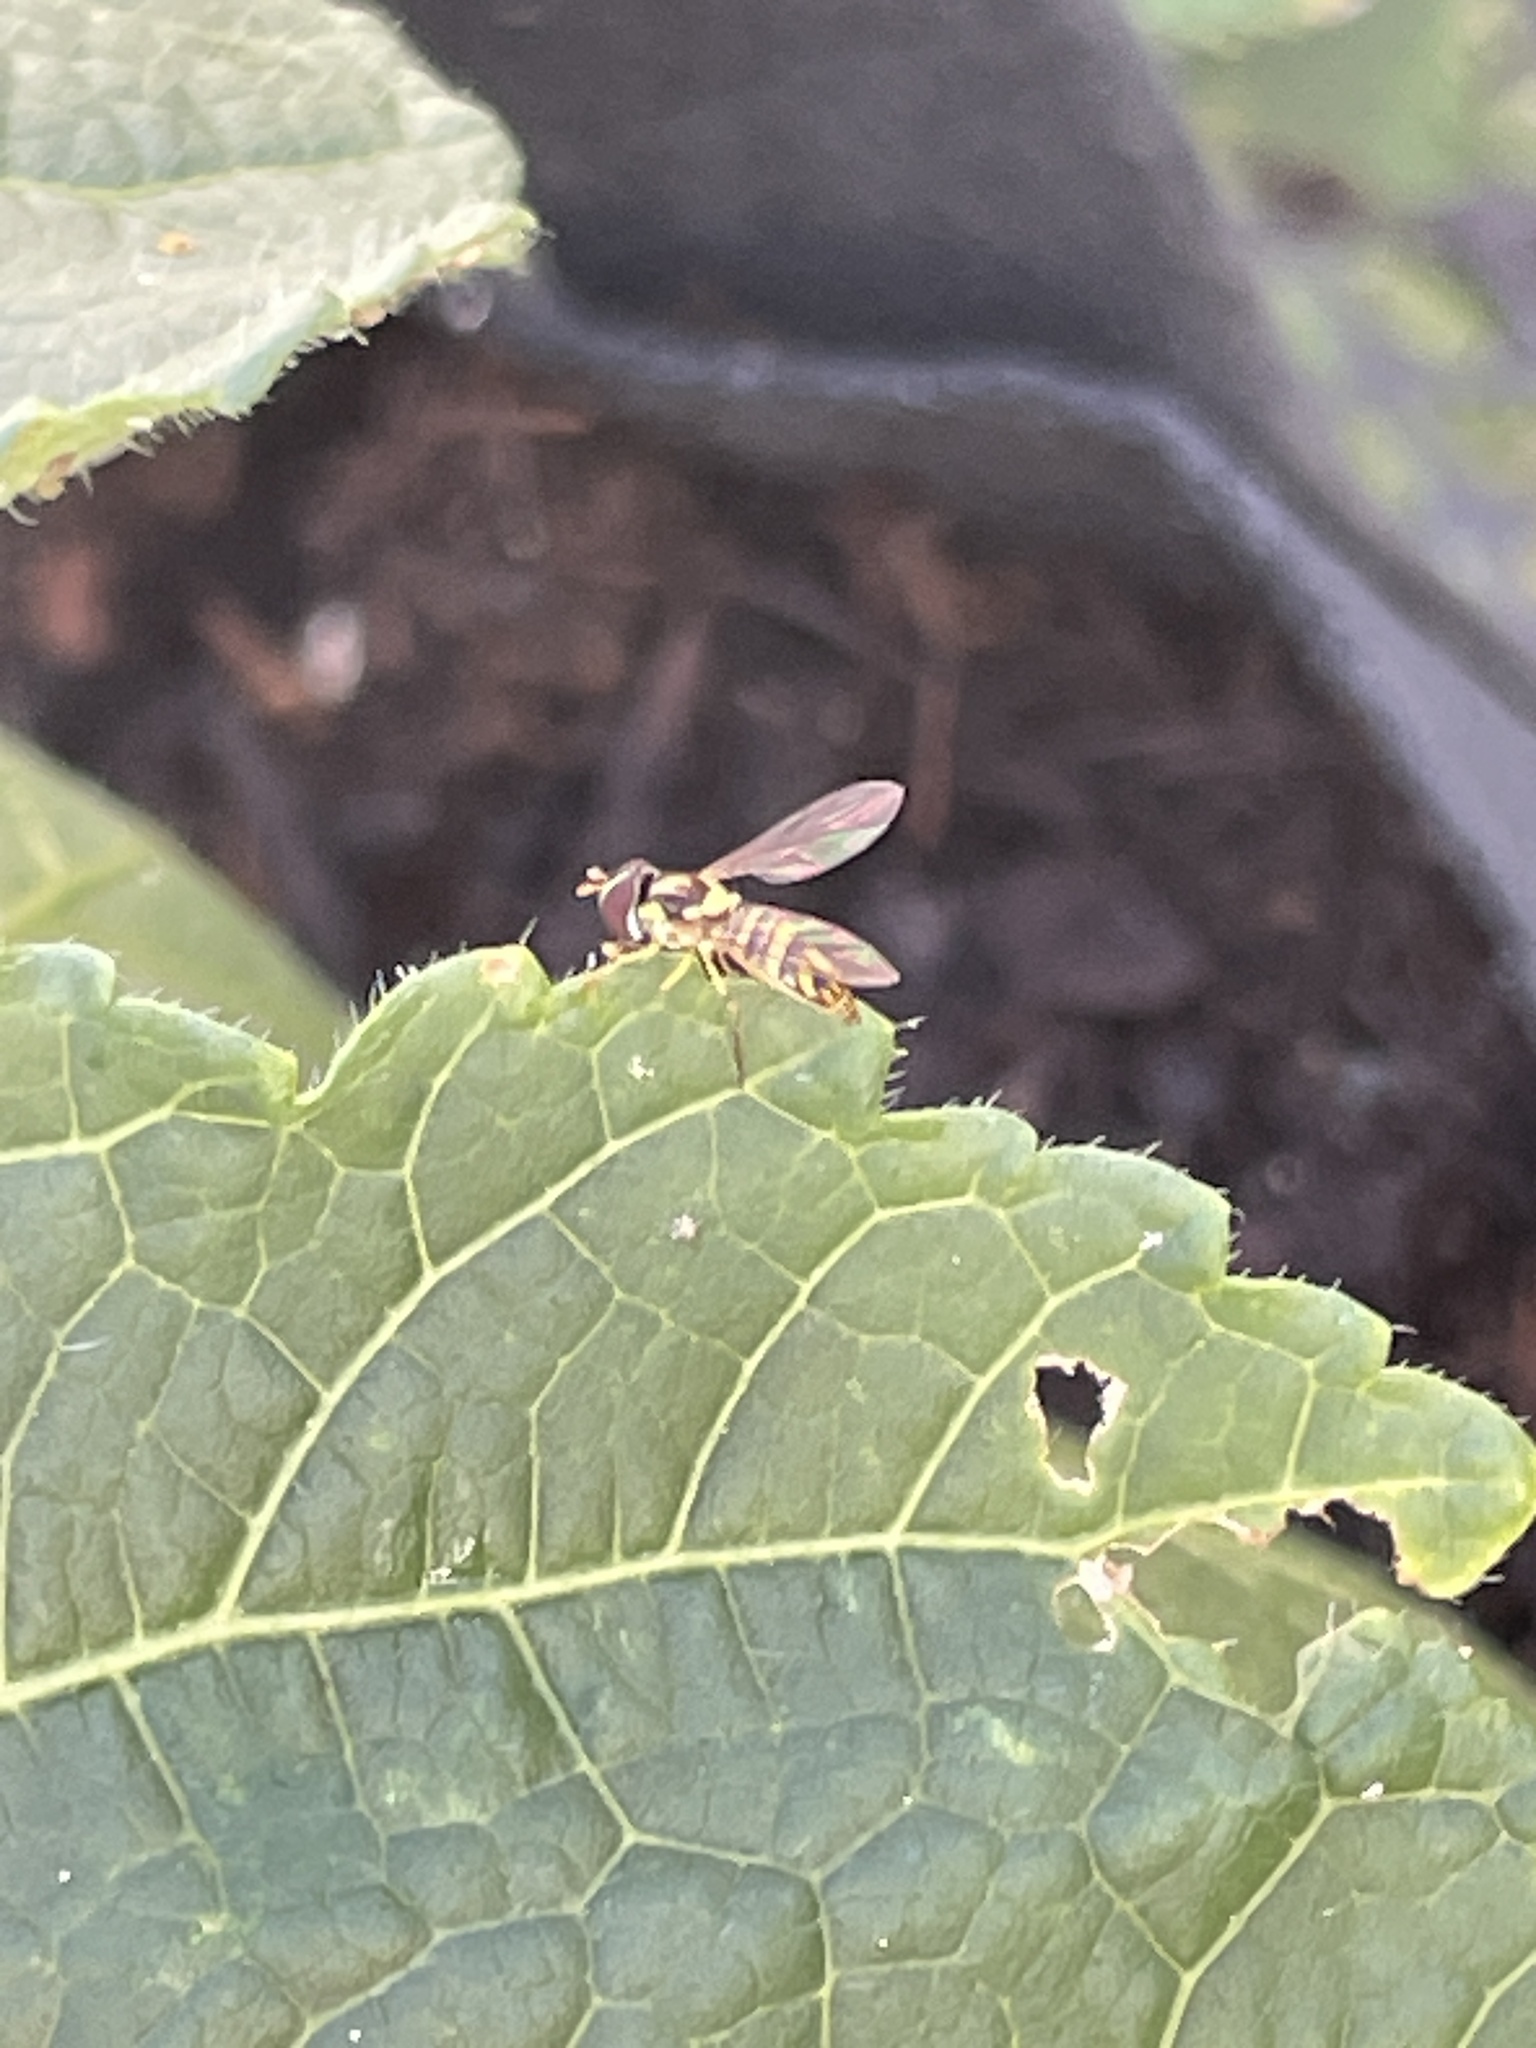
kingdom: Animalia
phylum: Arthropoda
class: Insecta
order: Diptera
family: Syrphidae
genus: Allograpta
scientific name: Allograpta obliqua
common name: Common oblique syrphid
